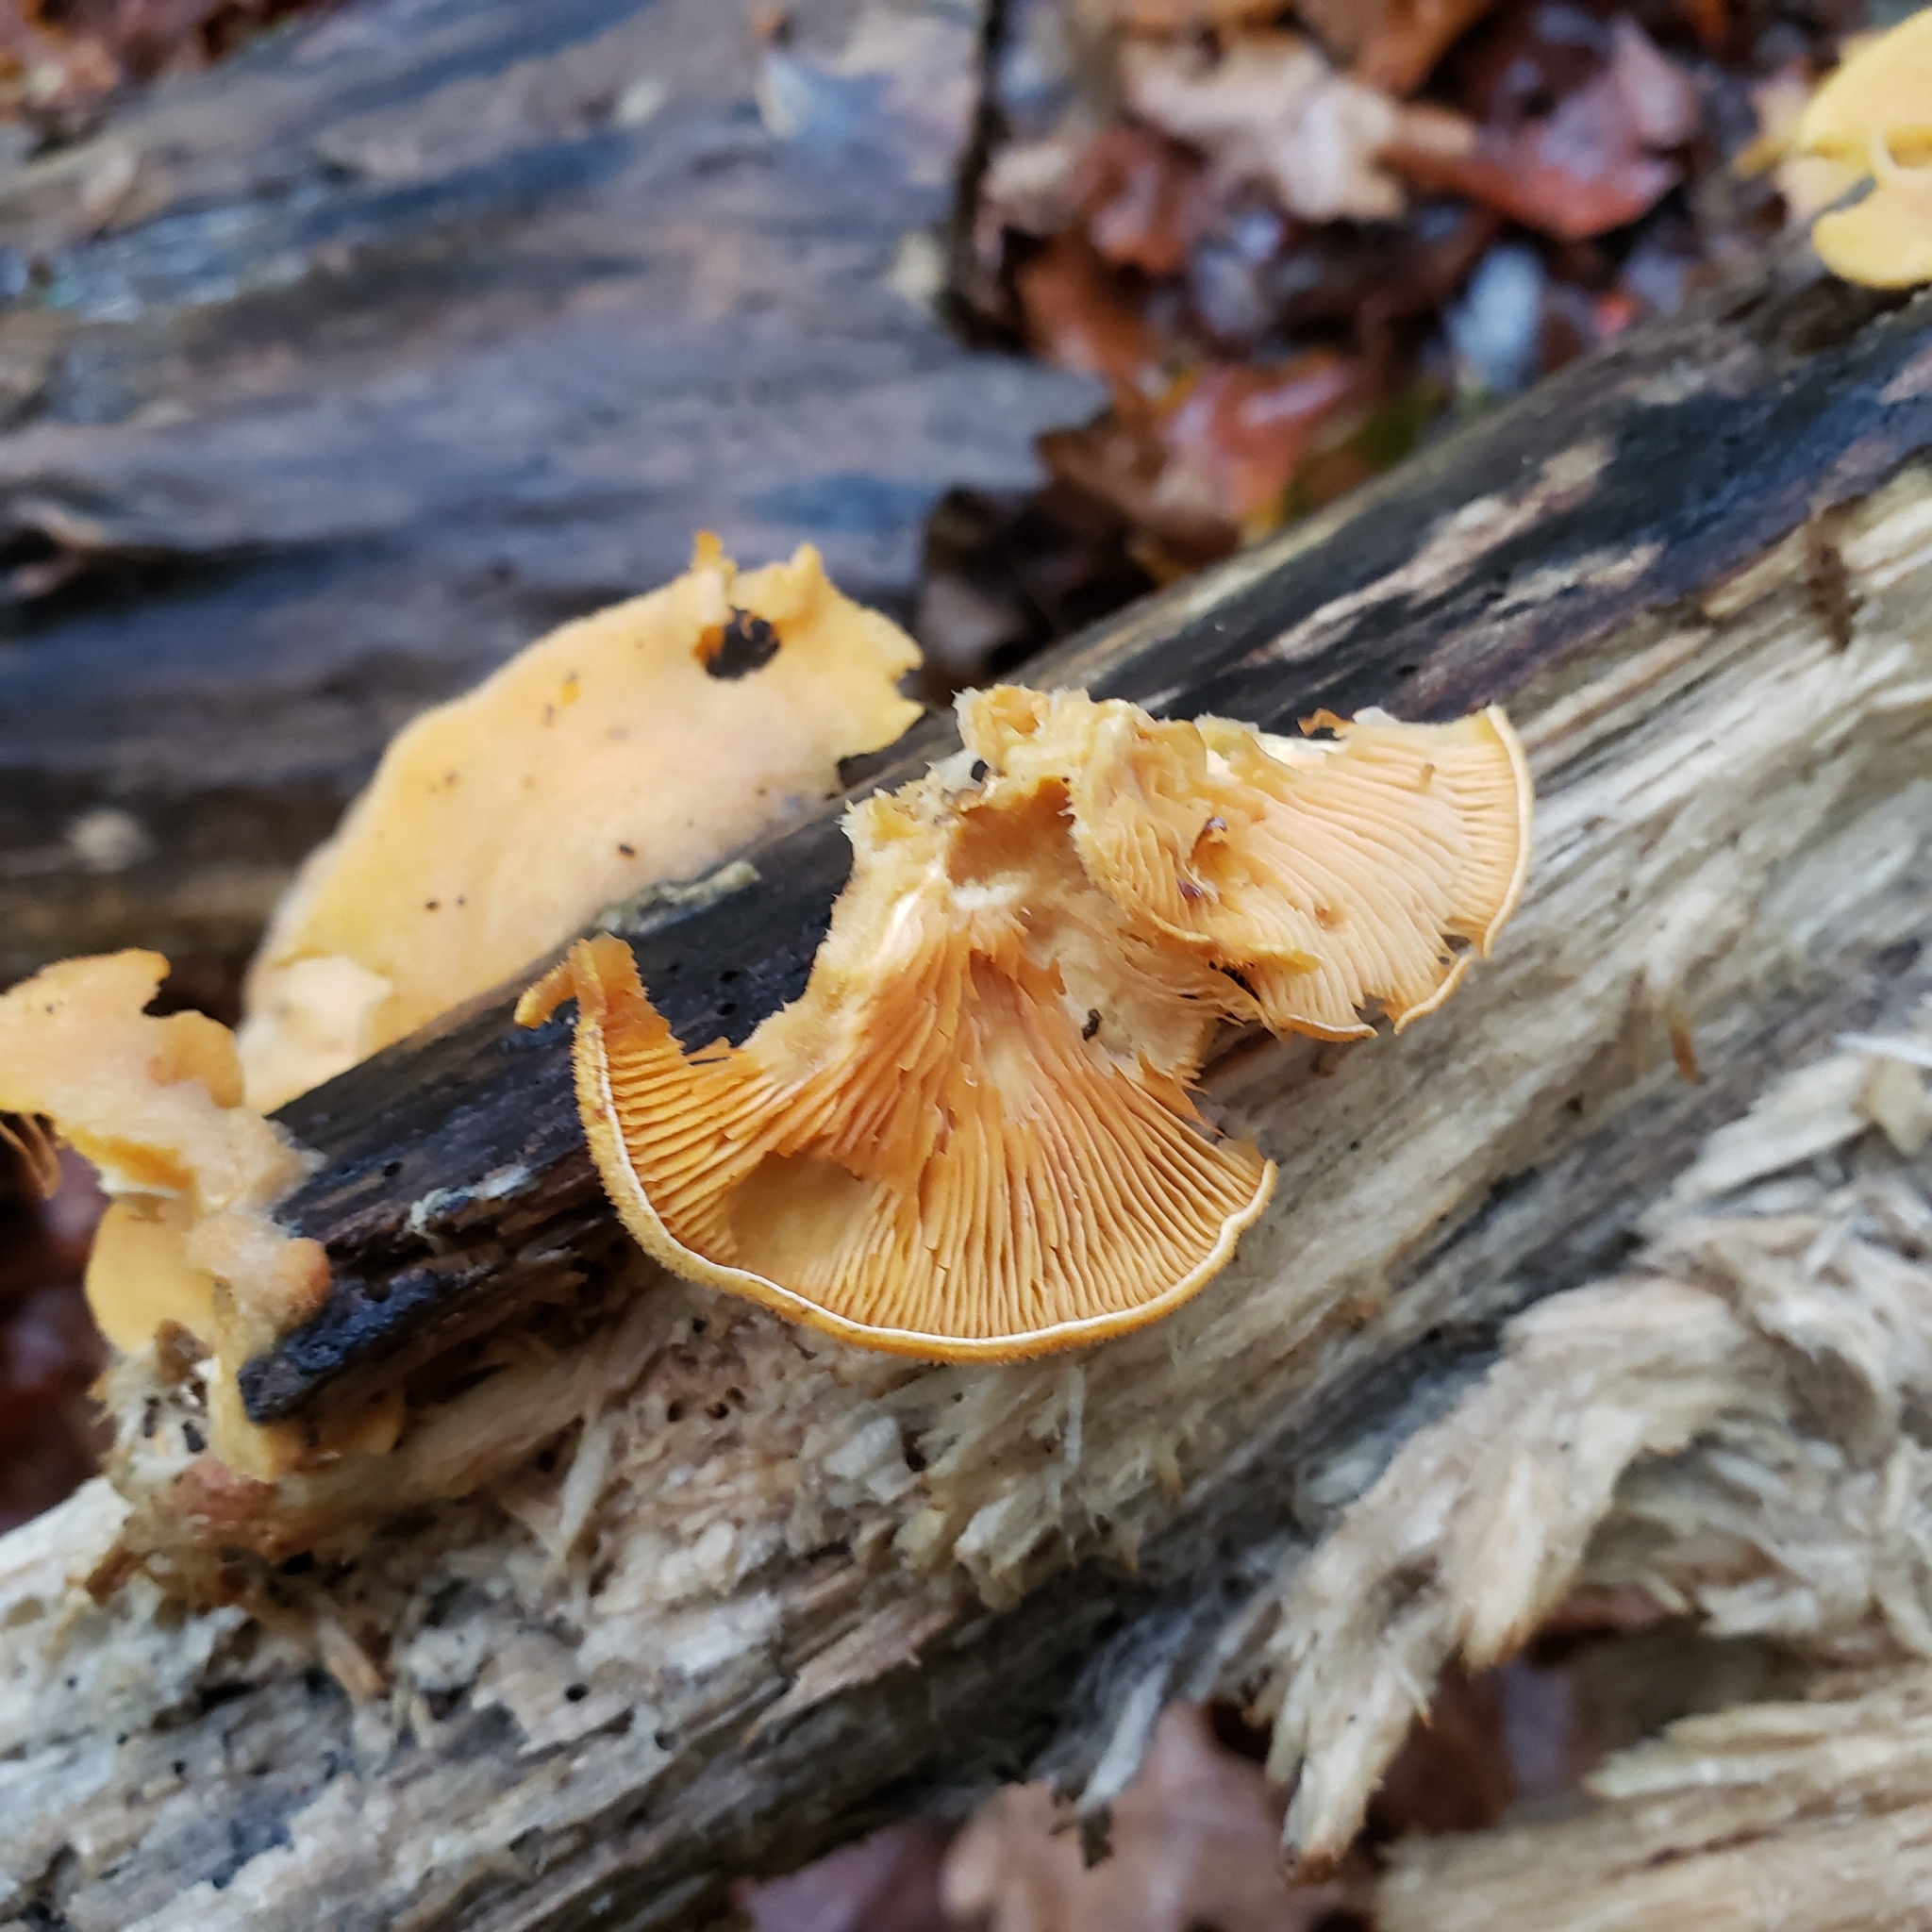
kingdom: Fungi
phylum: Basidiomycota
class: Agaricomycetes
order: Agaricales
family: Phyllotopsidaceae
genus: Phyllotopsis
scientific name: Phyllotopsis nidulans
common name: Orange mock oyster
